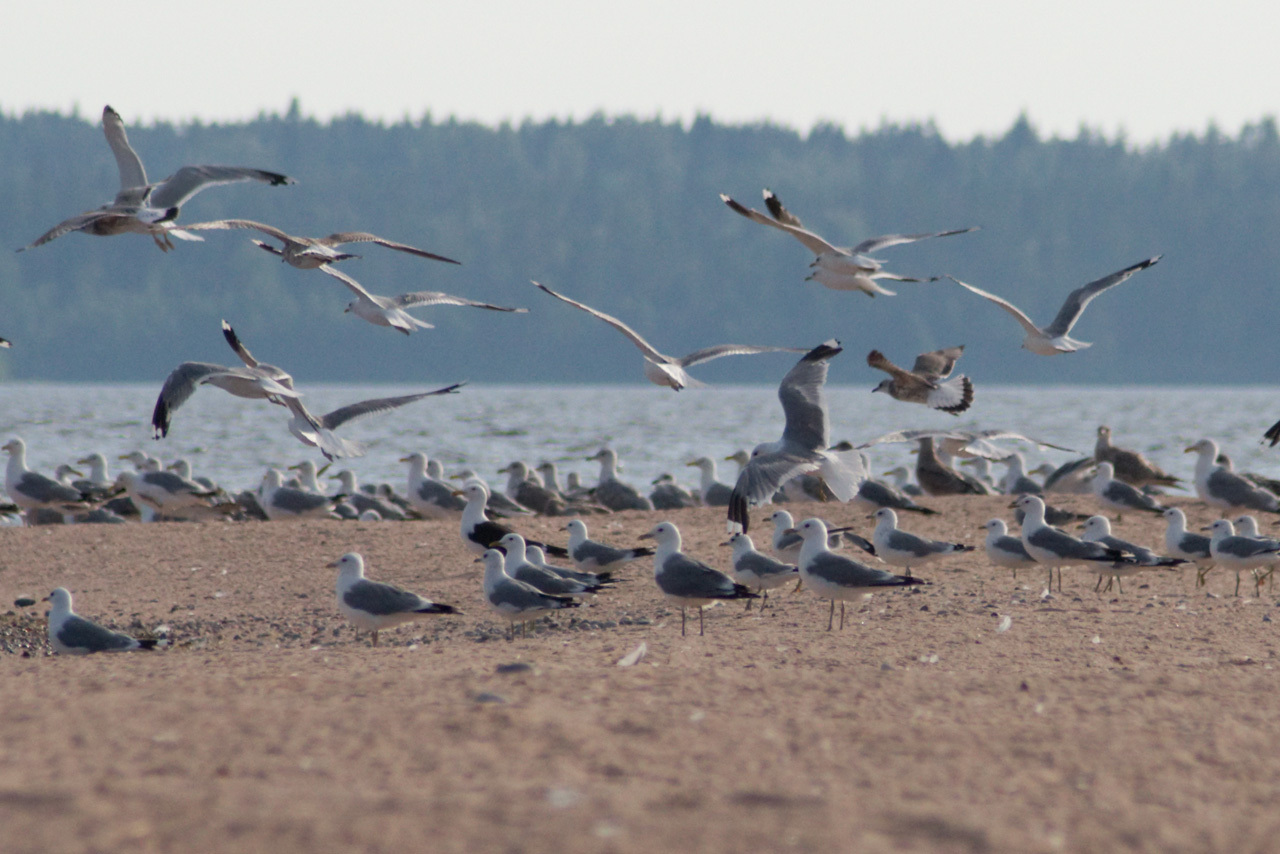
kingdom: Animalia
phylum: Chordata
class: Aves
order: Charadriiformes
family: Laridae
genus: Larus
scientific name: Larus canus
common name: Mew gull
